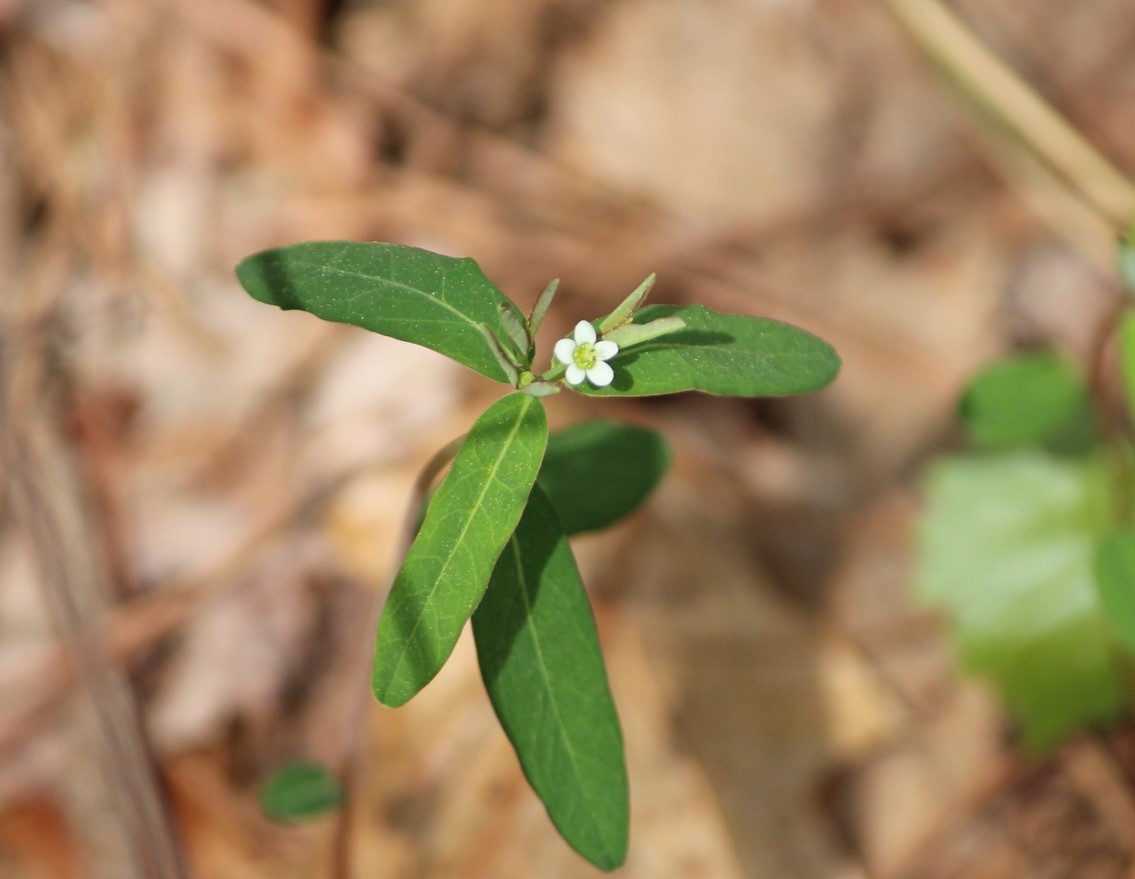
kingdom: Plantae
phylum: Tracheophyta
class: Magnoliopsida
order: Malpighiales
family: Euphorbiaceae
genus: Euphorbia
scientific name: Euphorbia corollata
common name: Flowering spurge
